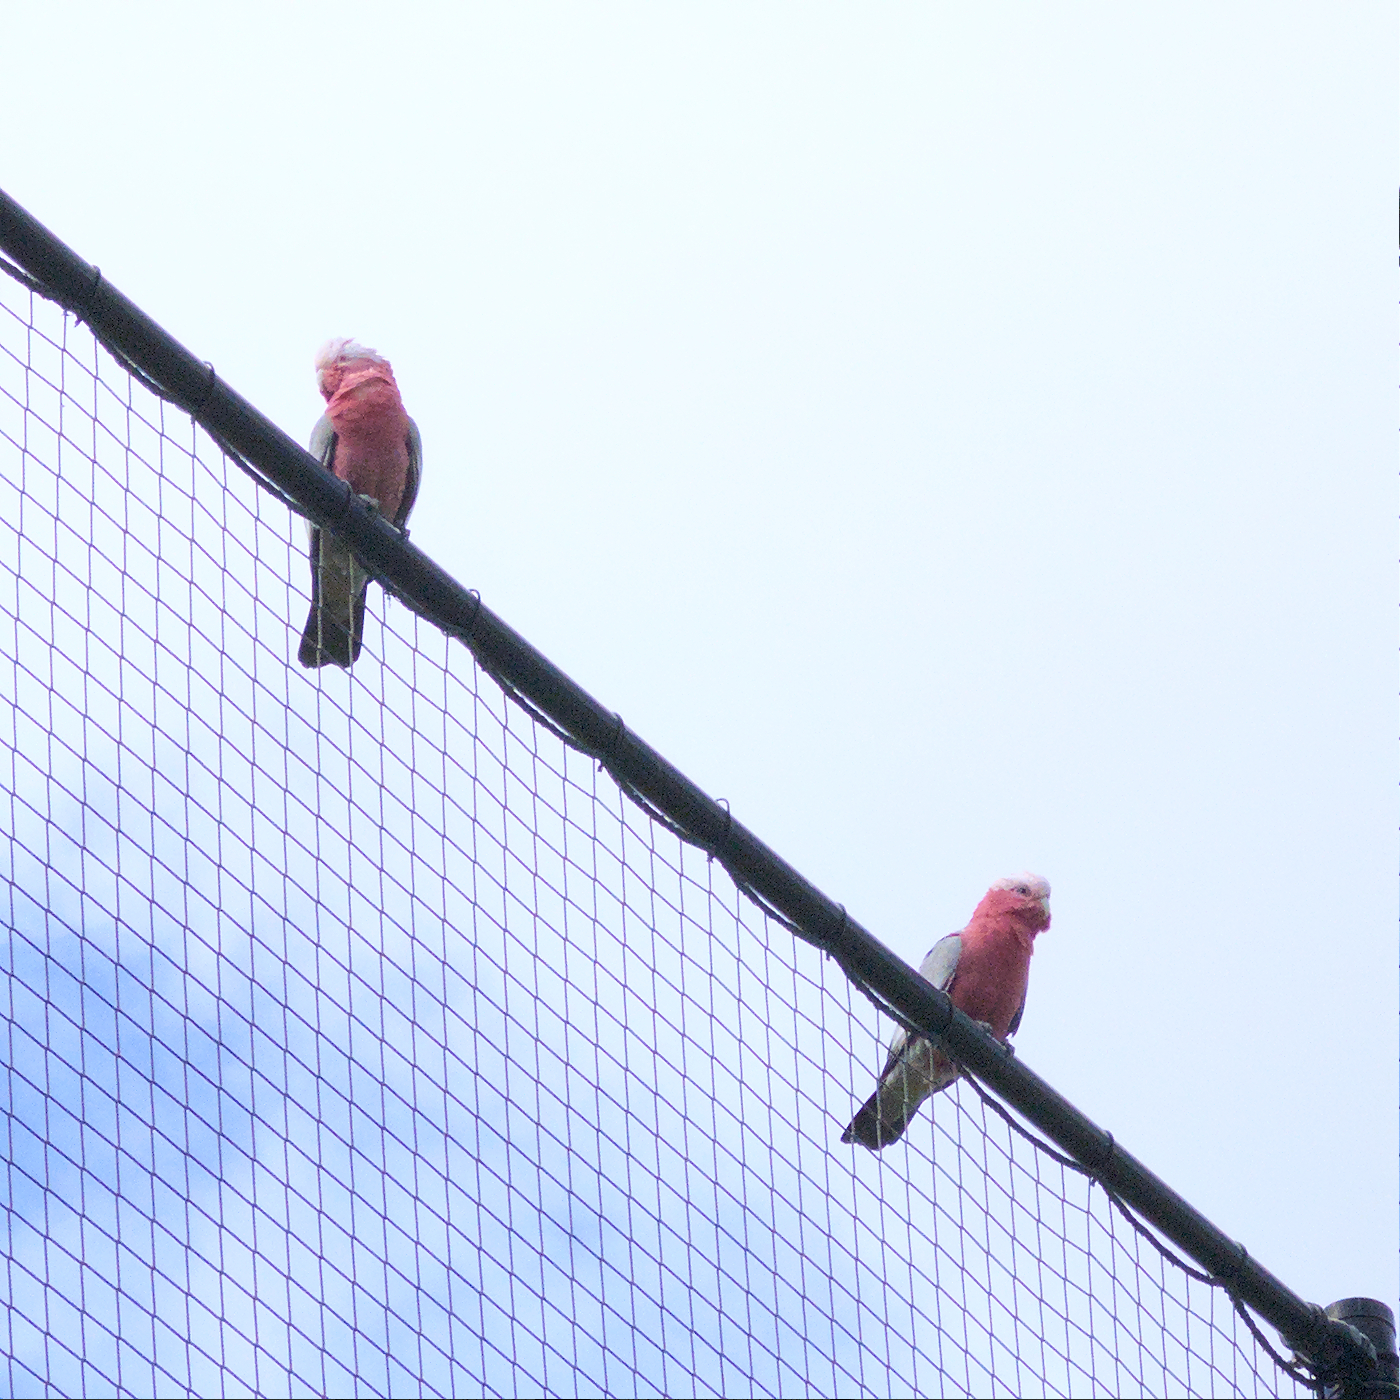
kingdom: Animalia
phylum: Chordata
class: Aves
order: Psittaciformes
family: Psittacidae
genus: Eolophus
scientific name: Eolophus roseicapilla
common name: Galah
